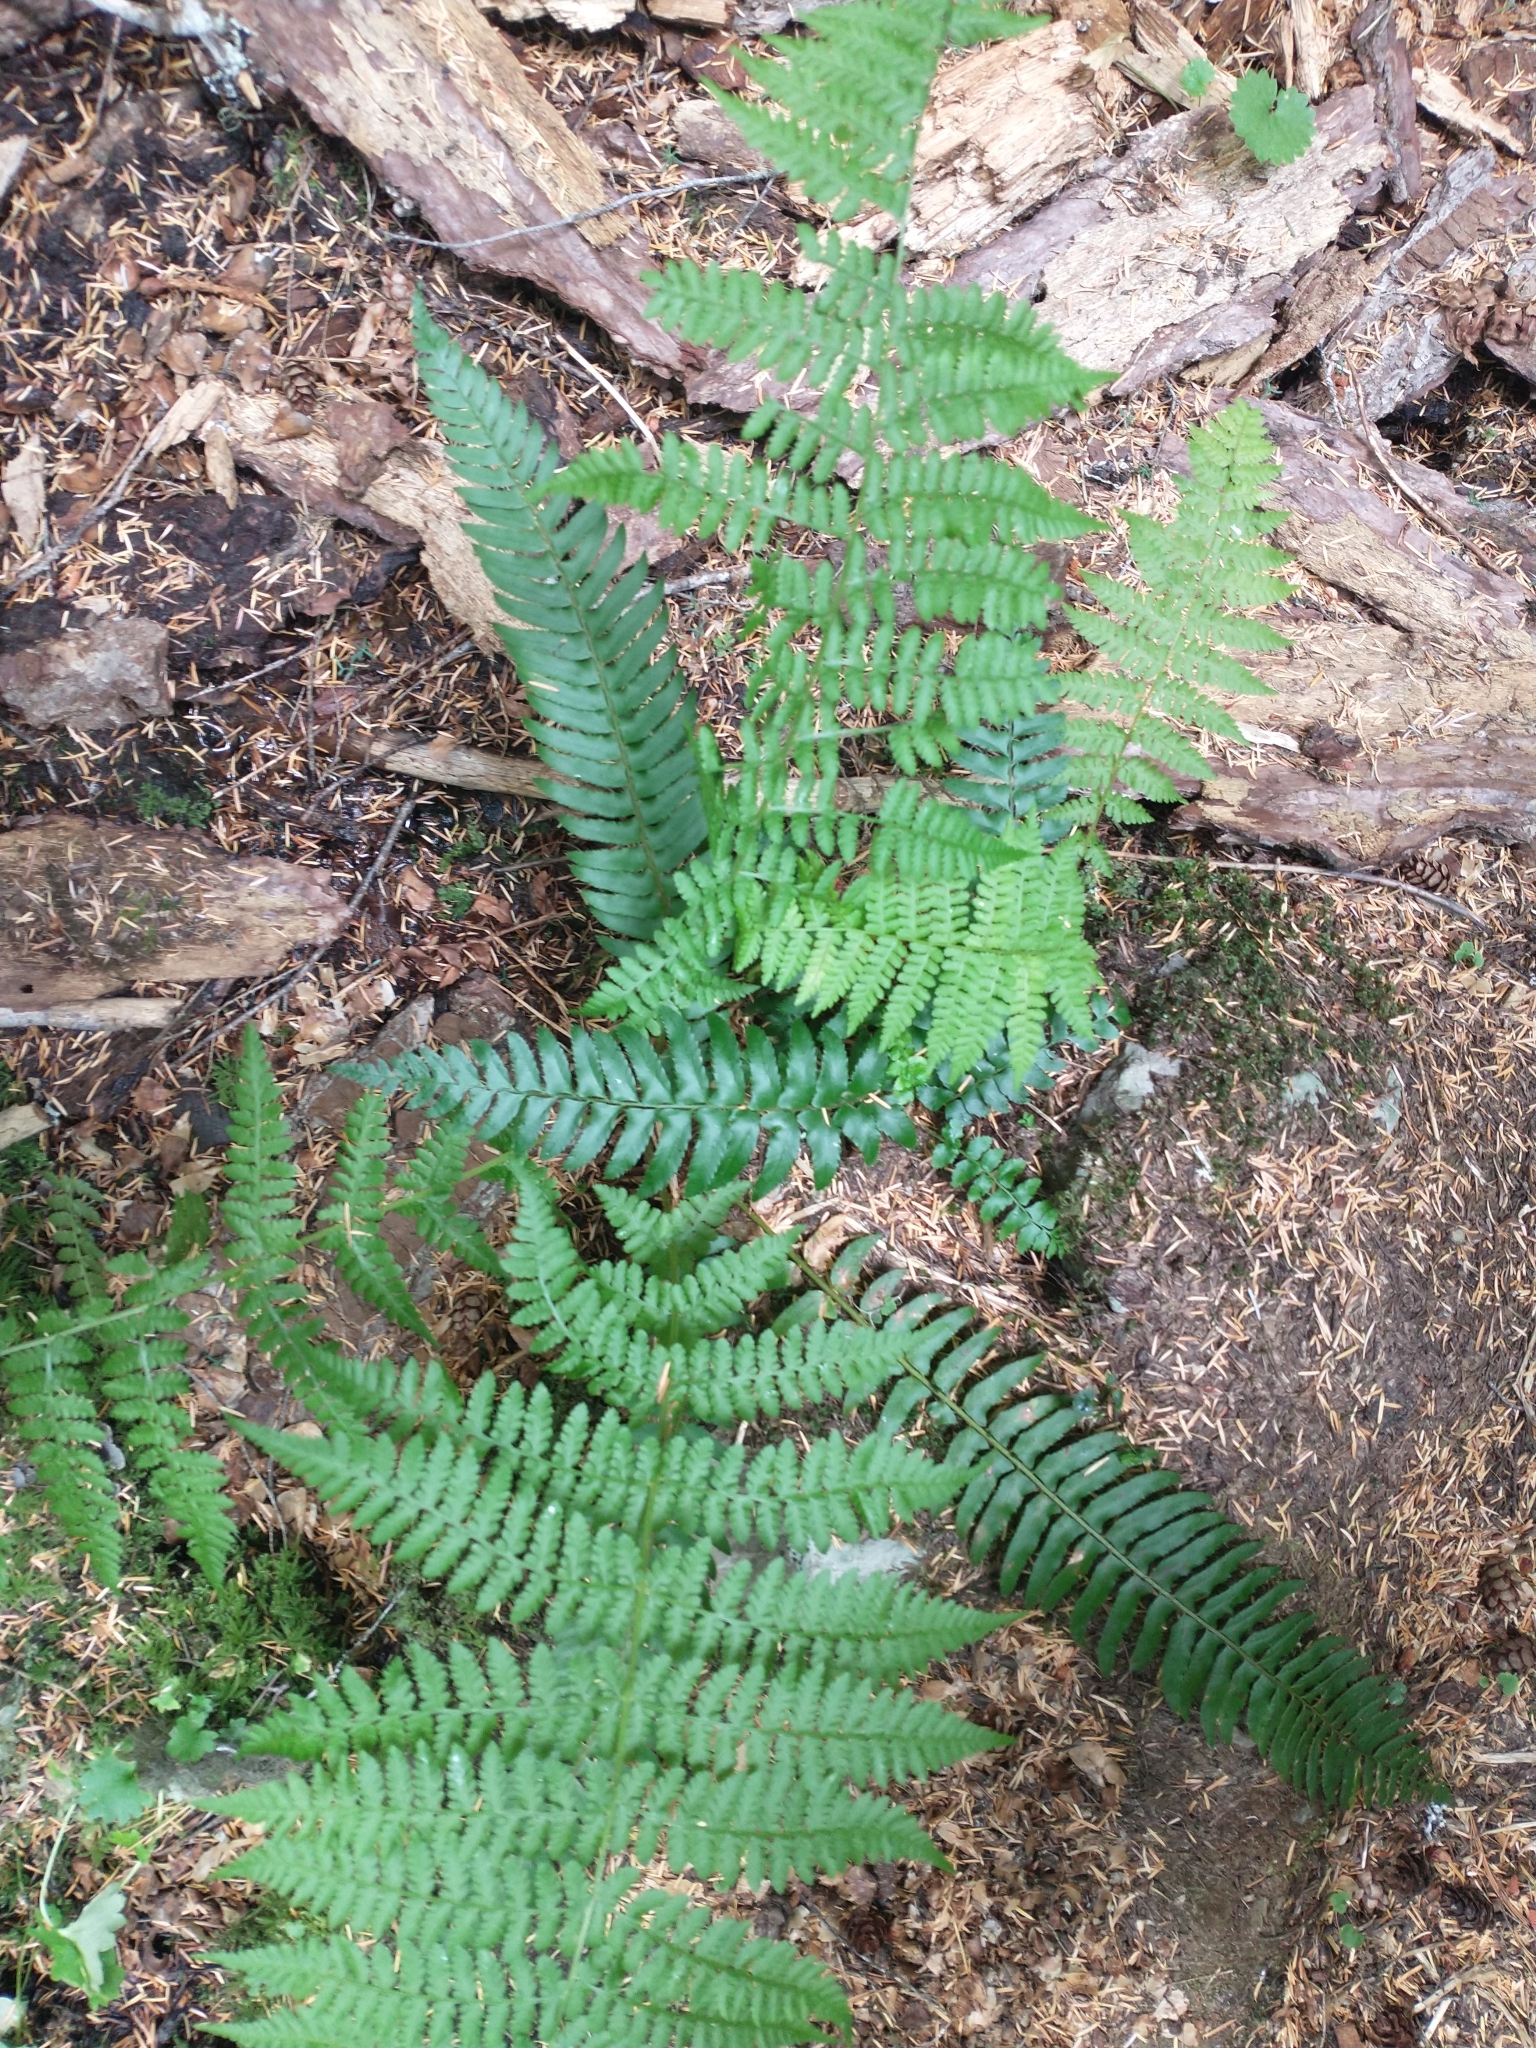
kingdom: Plantae
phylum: Tracheophyta
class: Polypodiopsida
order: Polypodiales
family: Dryopteridaceae
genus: Polystichum
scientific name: Polystichum munitum
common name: Western sword-fern
